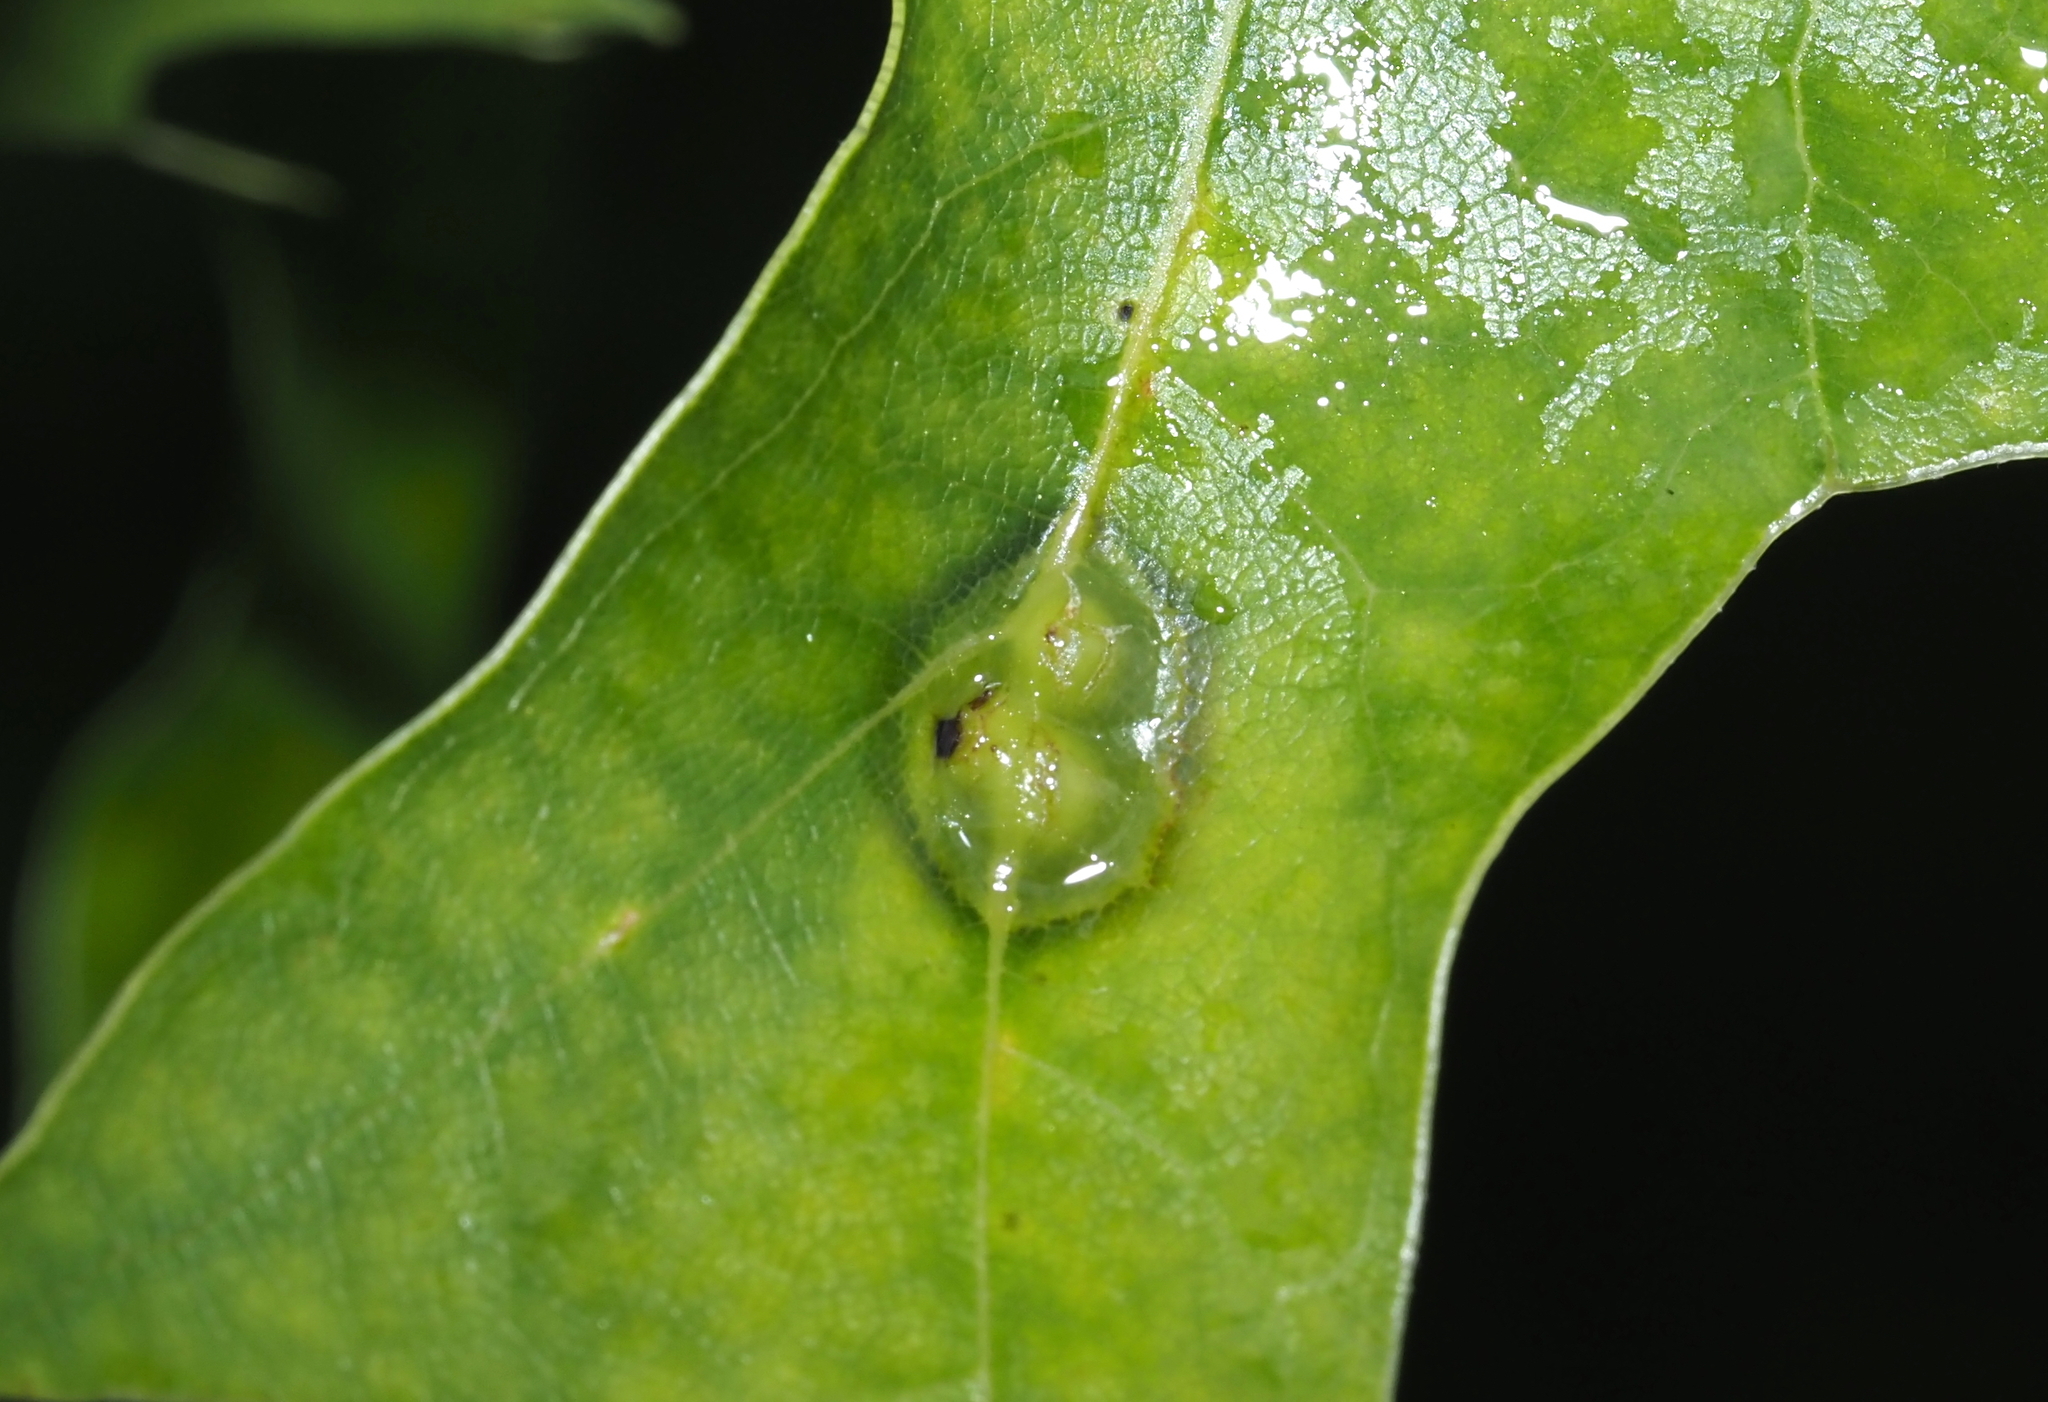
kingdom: Animalia
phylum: Arthropoda
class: Insecta
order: Diptera
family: Cecidomyiidae
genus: Polystepha
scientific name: Polystepha pilulae
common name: Oak leaf gall midge
